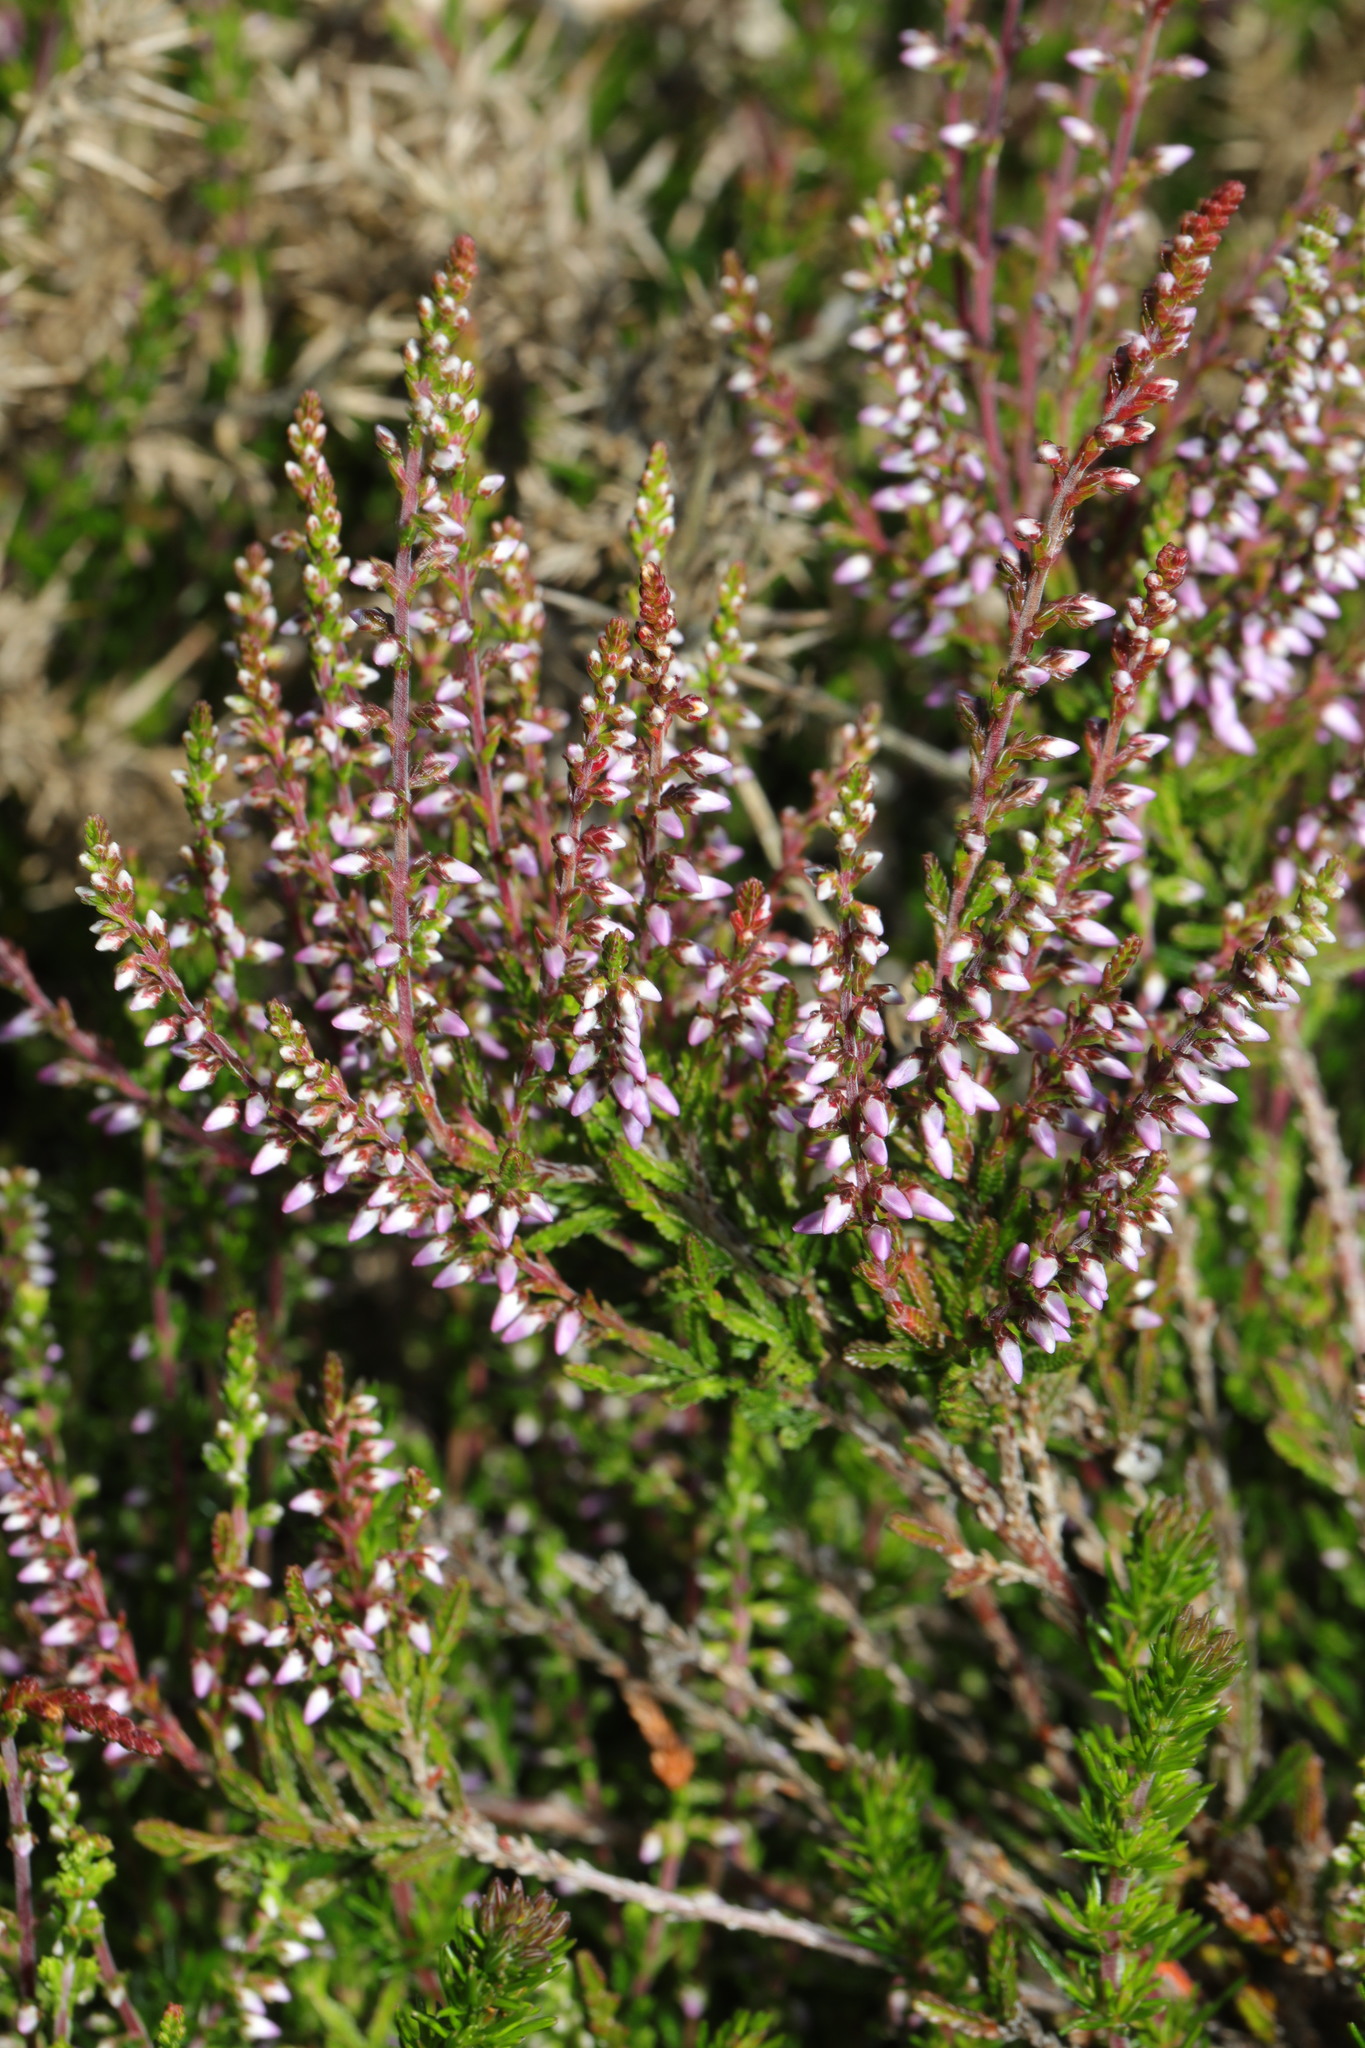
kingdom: Plantae
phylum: Tracheophyta
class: Magnoliopsida
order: Ericales
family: Ericaceae
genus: Calluna
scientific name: Calluna vulgaris
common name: Heather
